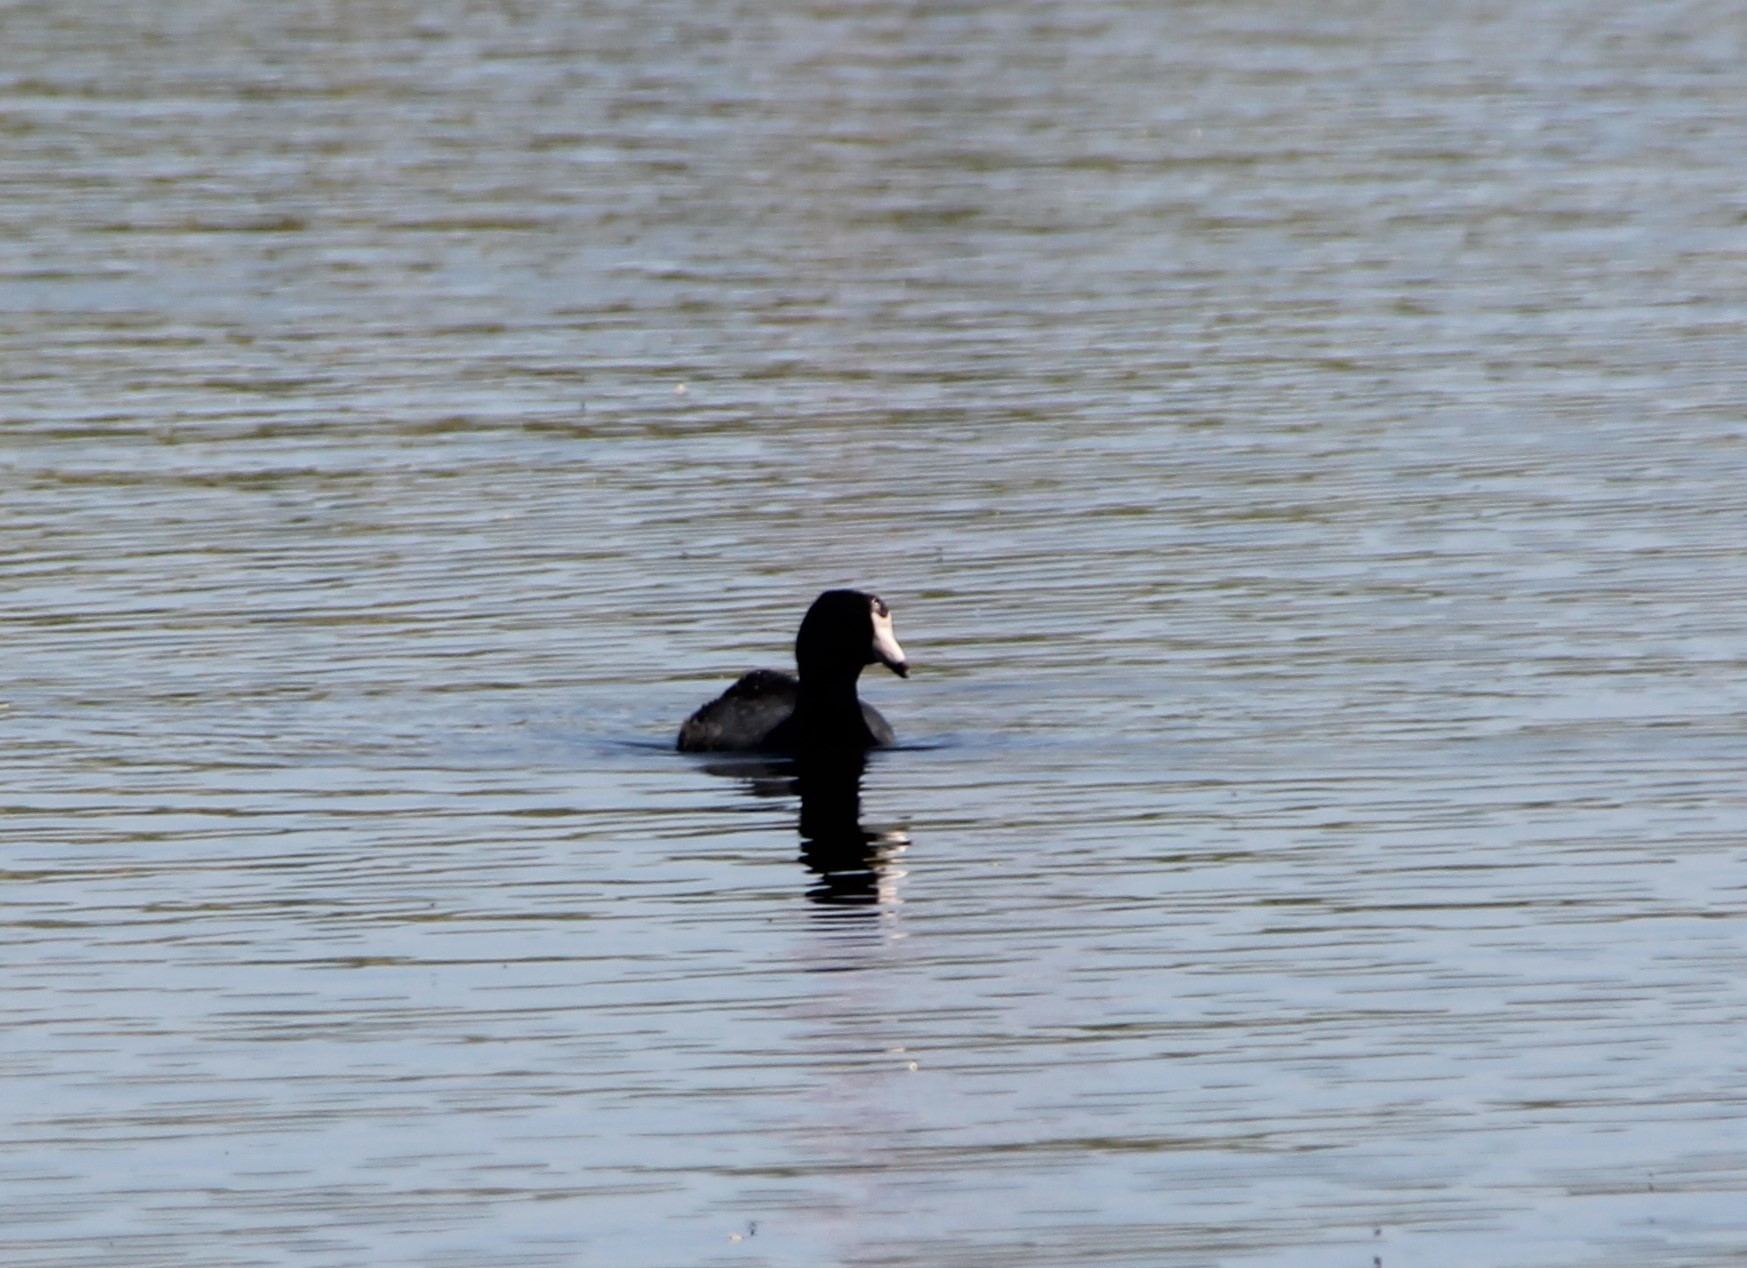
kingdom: Animalia
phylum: Chordata
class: Aves
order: Gruiformes
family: Rallidae
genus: Fulica
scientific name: Fulica americana
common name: American coot
